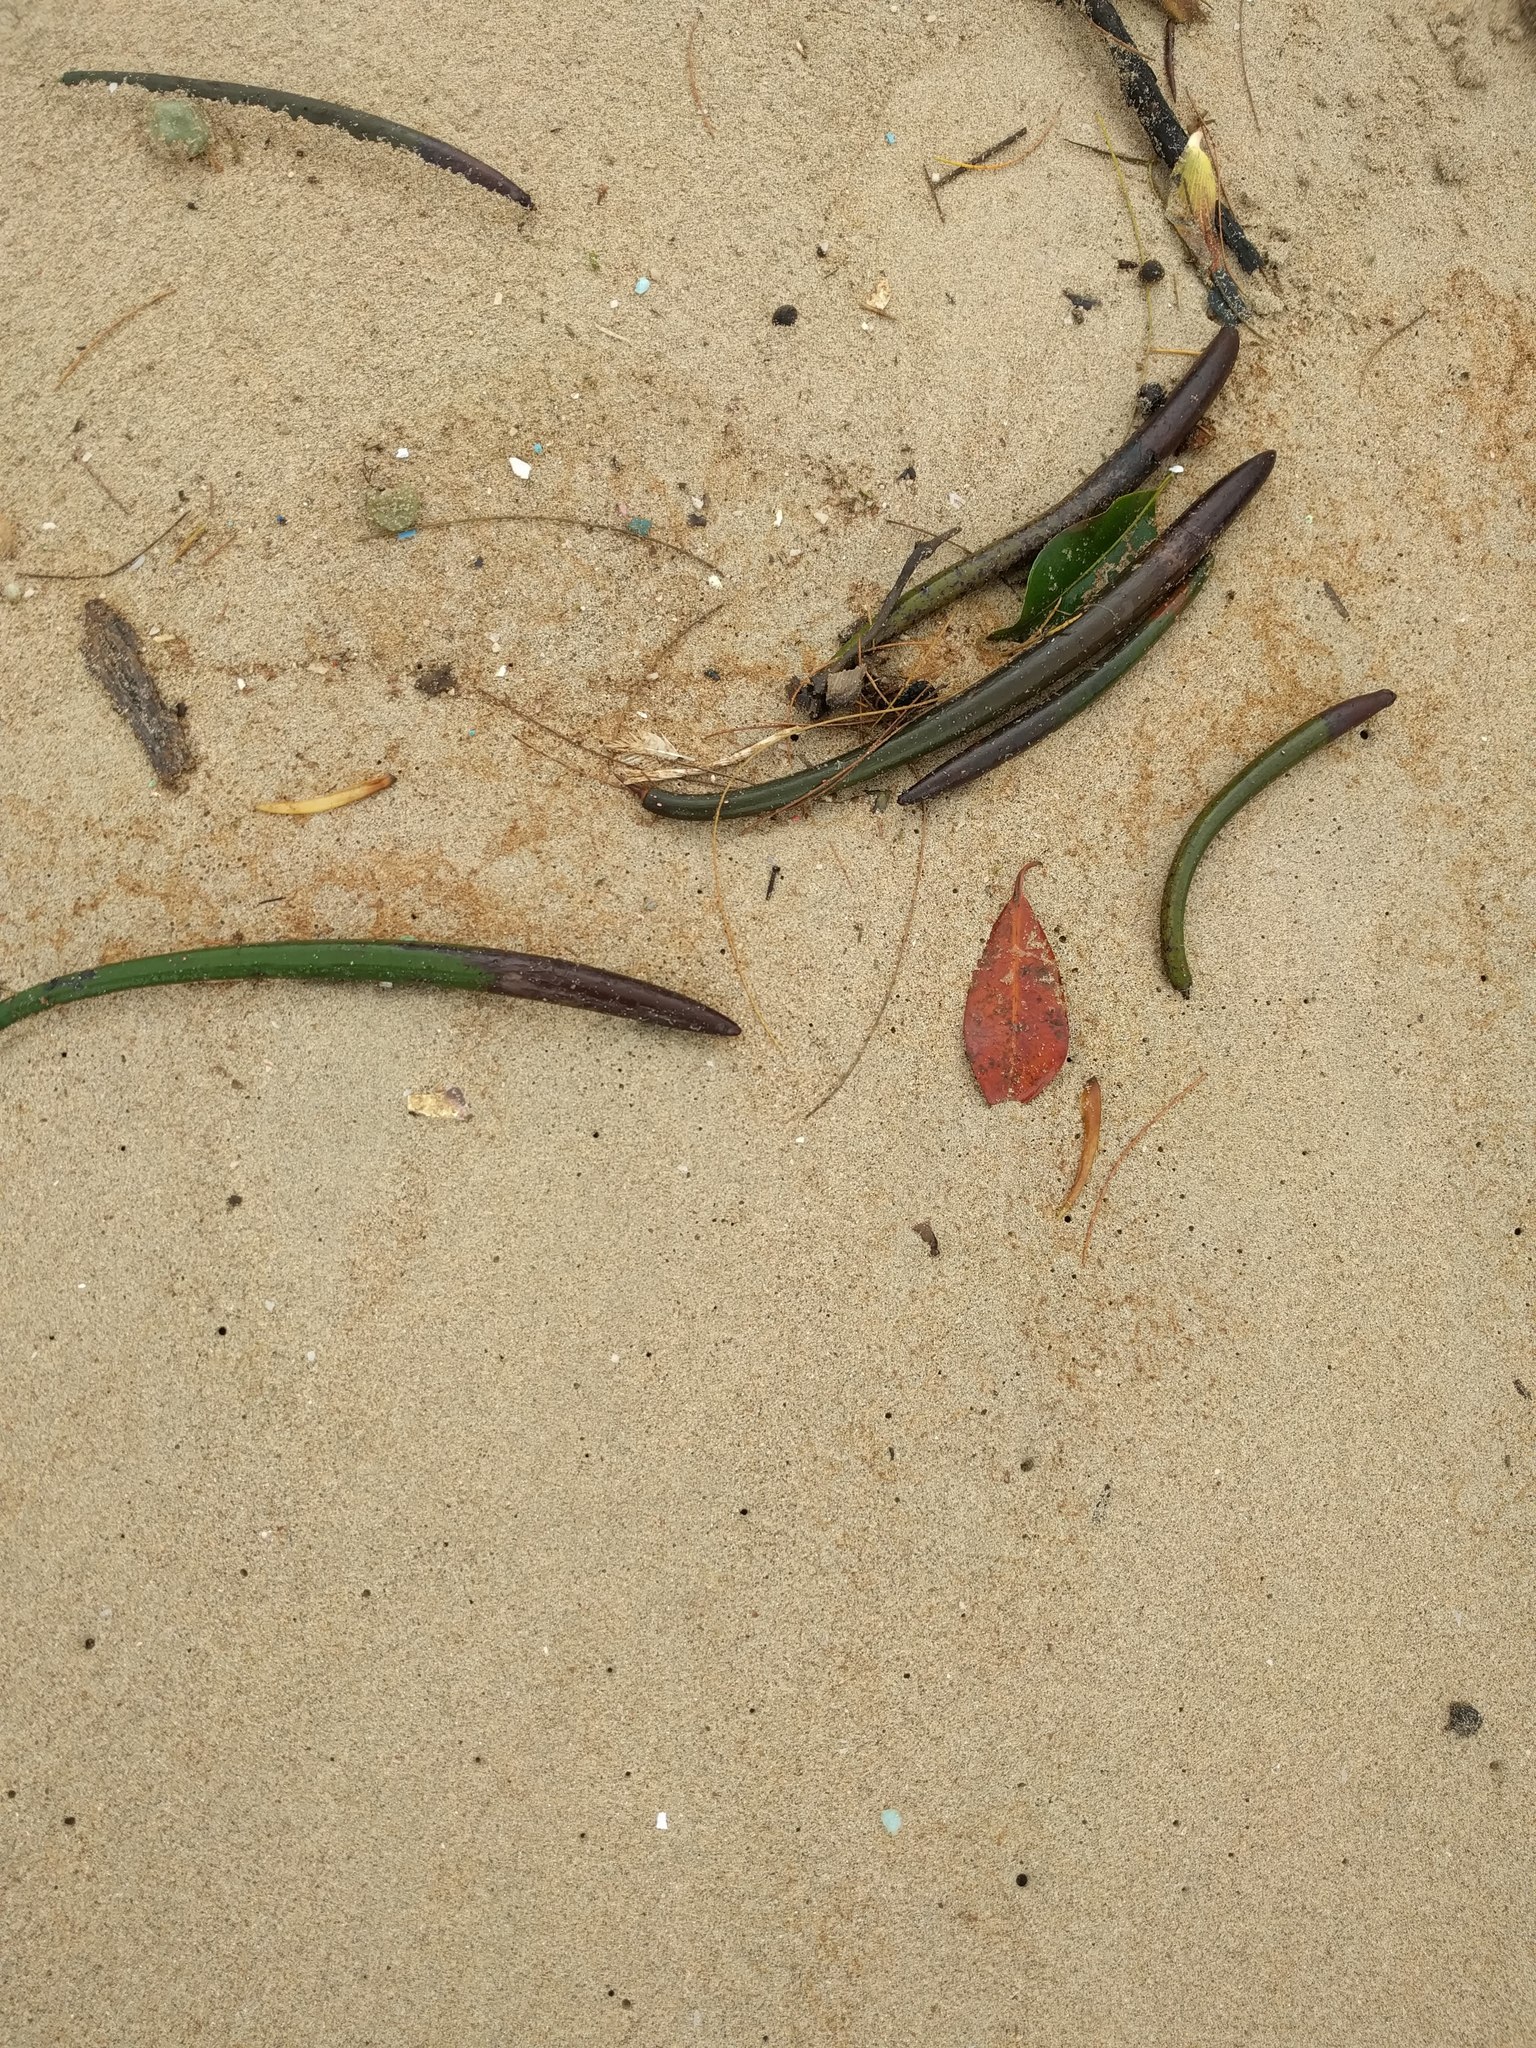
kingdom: Plantae
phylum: Tracheophyta
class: Magnoliopsida
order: Malpighiales
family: Rhizophoraceae
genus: Rhizophora
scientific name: Rhizophora mangle
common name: Red mangrove
